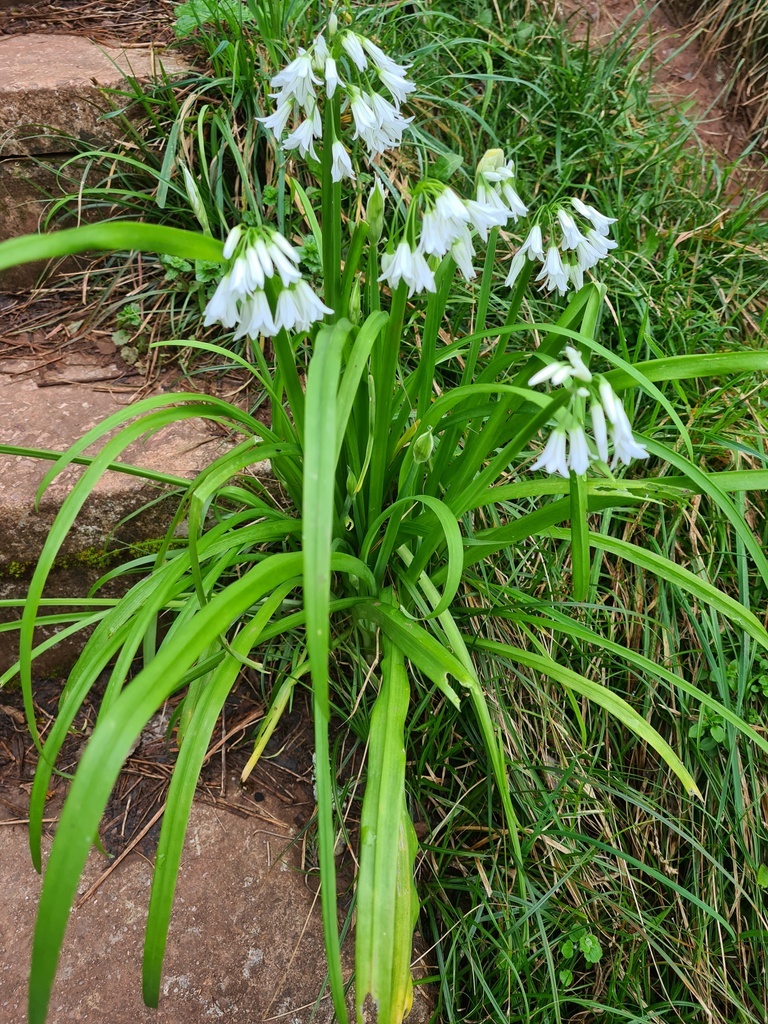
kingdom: Plantae
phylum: Tracheophyta
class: Liliopsida
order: Asparagales
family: Amaryllidaceae
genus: Allium
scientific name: Allium triquetrum
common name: Three-cornered garlic
